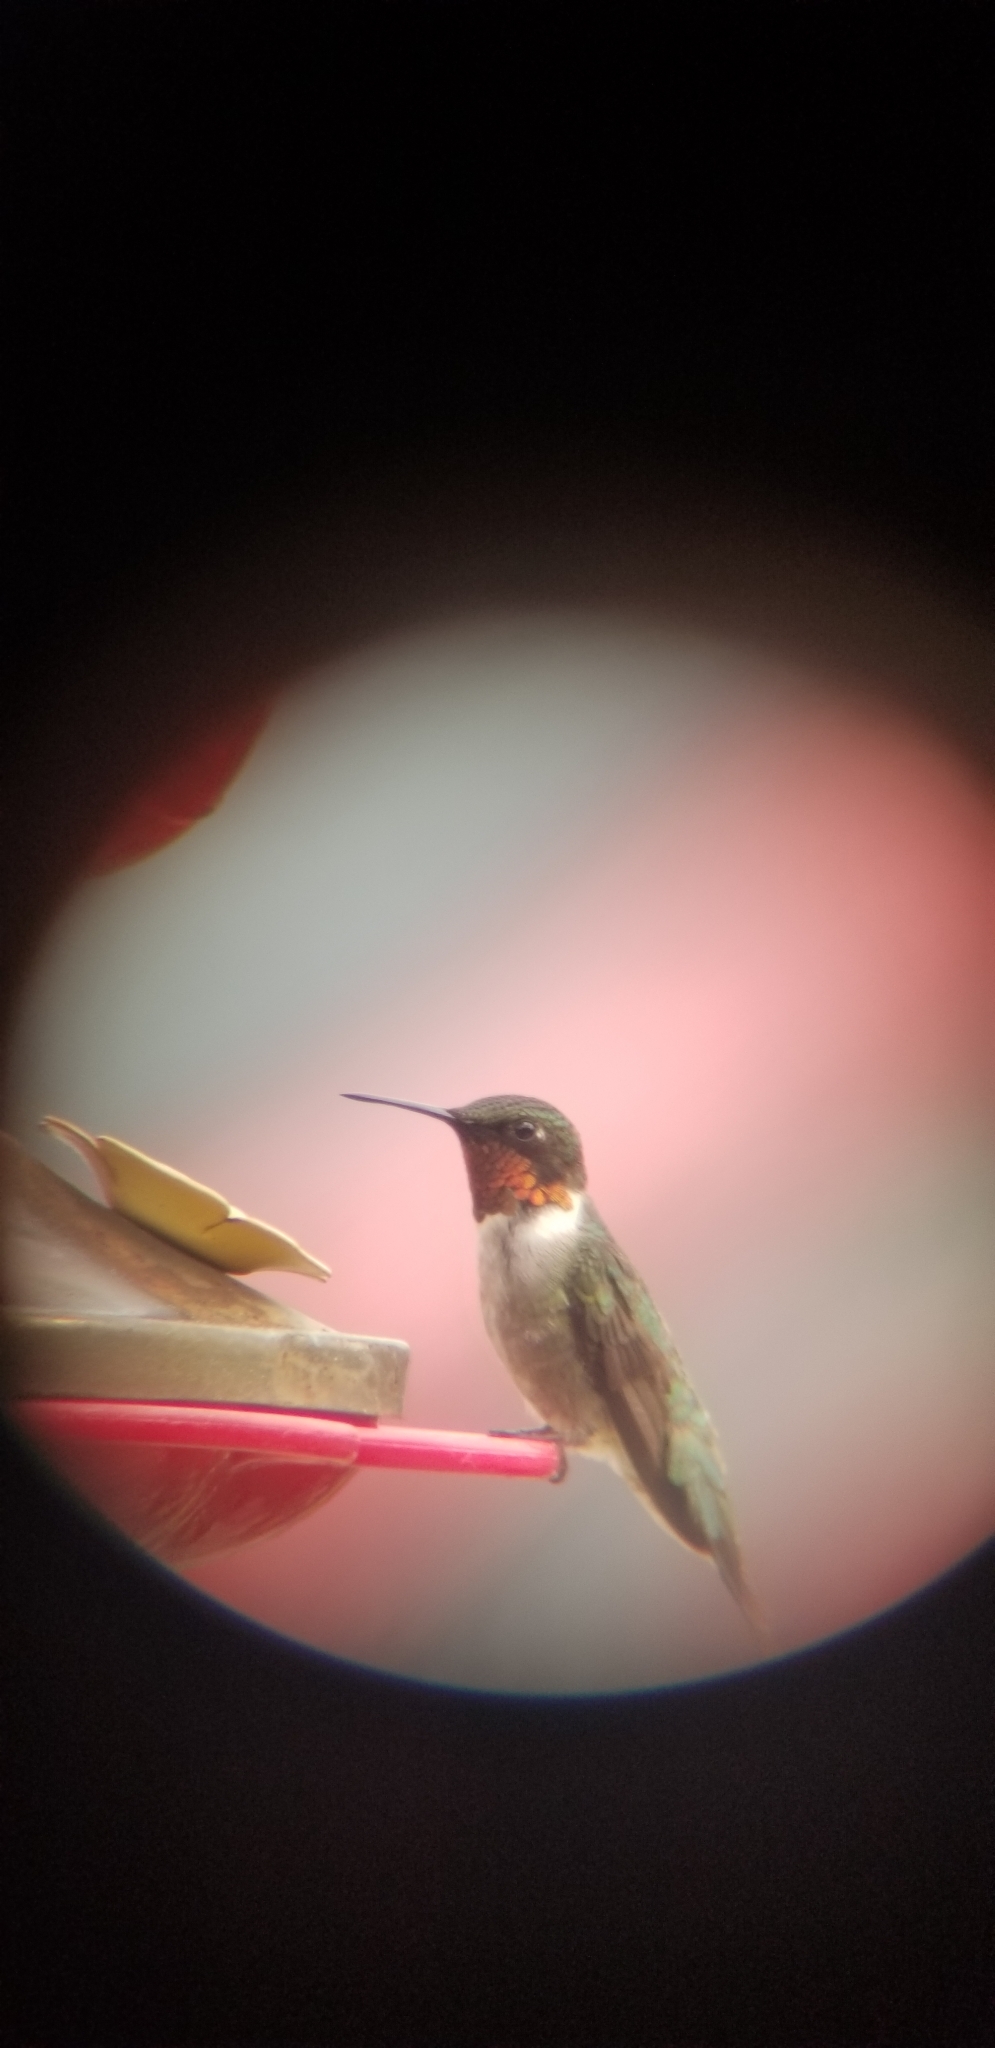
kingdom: Animalia
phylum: Chordata
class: Aves
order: Apodiformes
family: Trochilidae
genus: Archilochus
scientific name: Archilochus colubris
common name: Ruby-throated hummingbird
